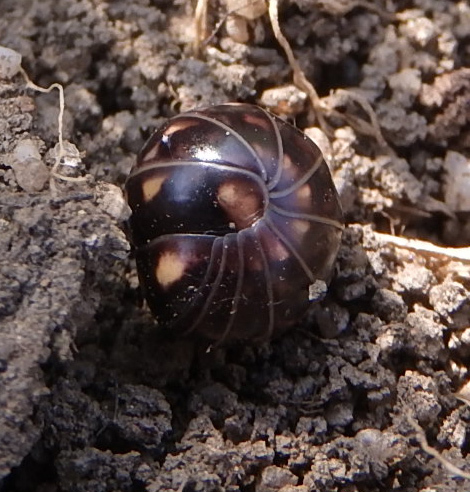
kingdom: Animalia
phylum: Arthropoda
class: Diplopoda
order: Glomerida
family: Glomeridae
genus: Glomeris
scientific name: Glomeris hexasticha
